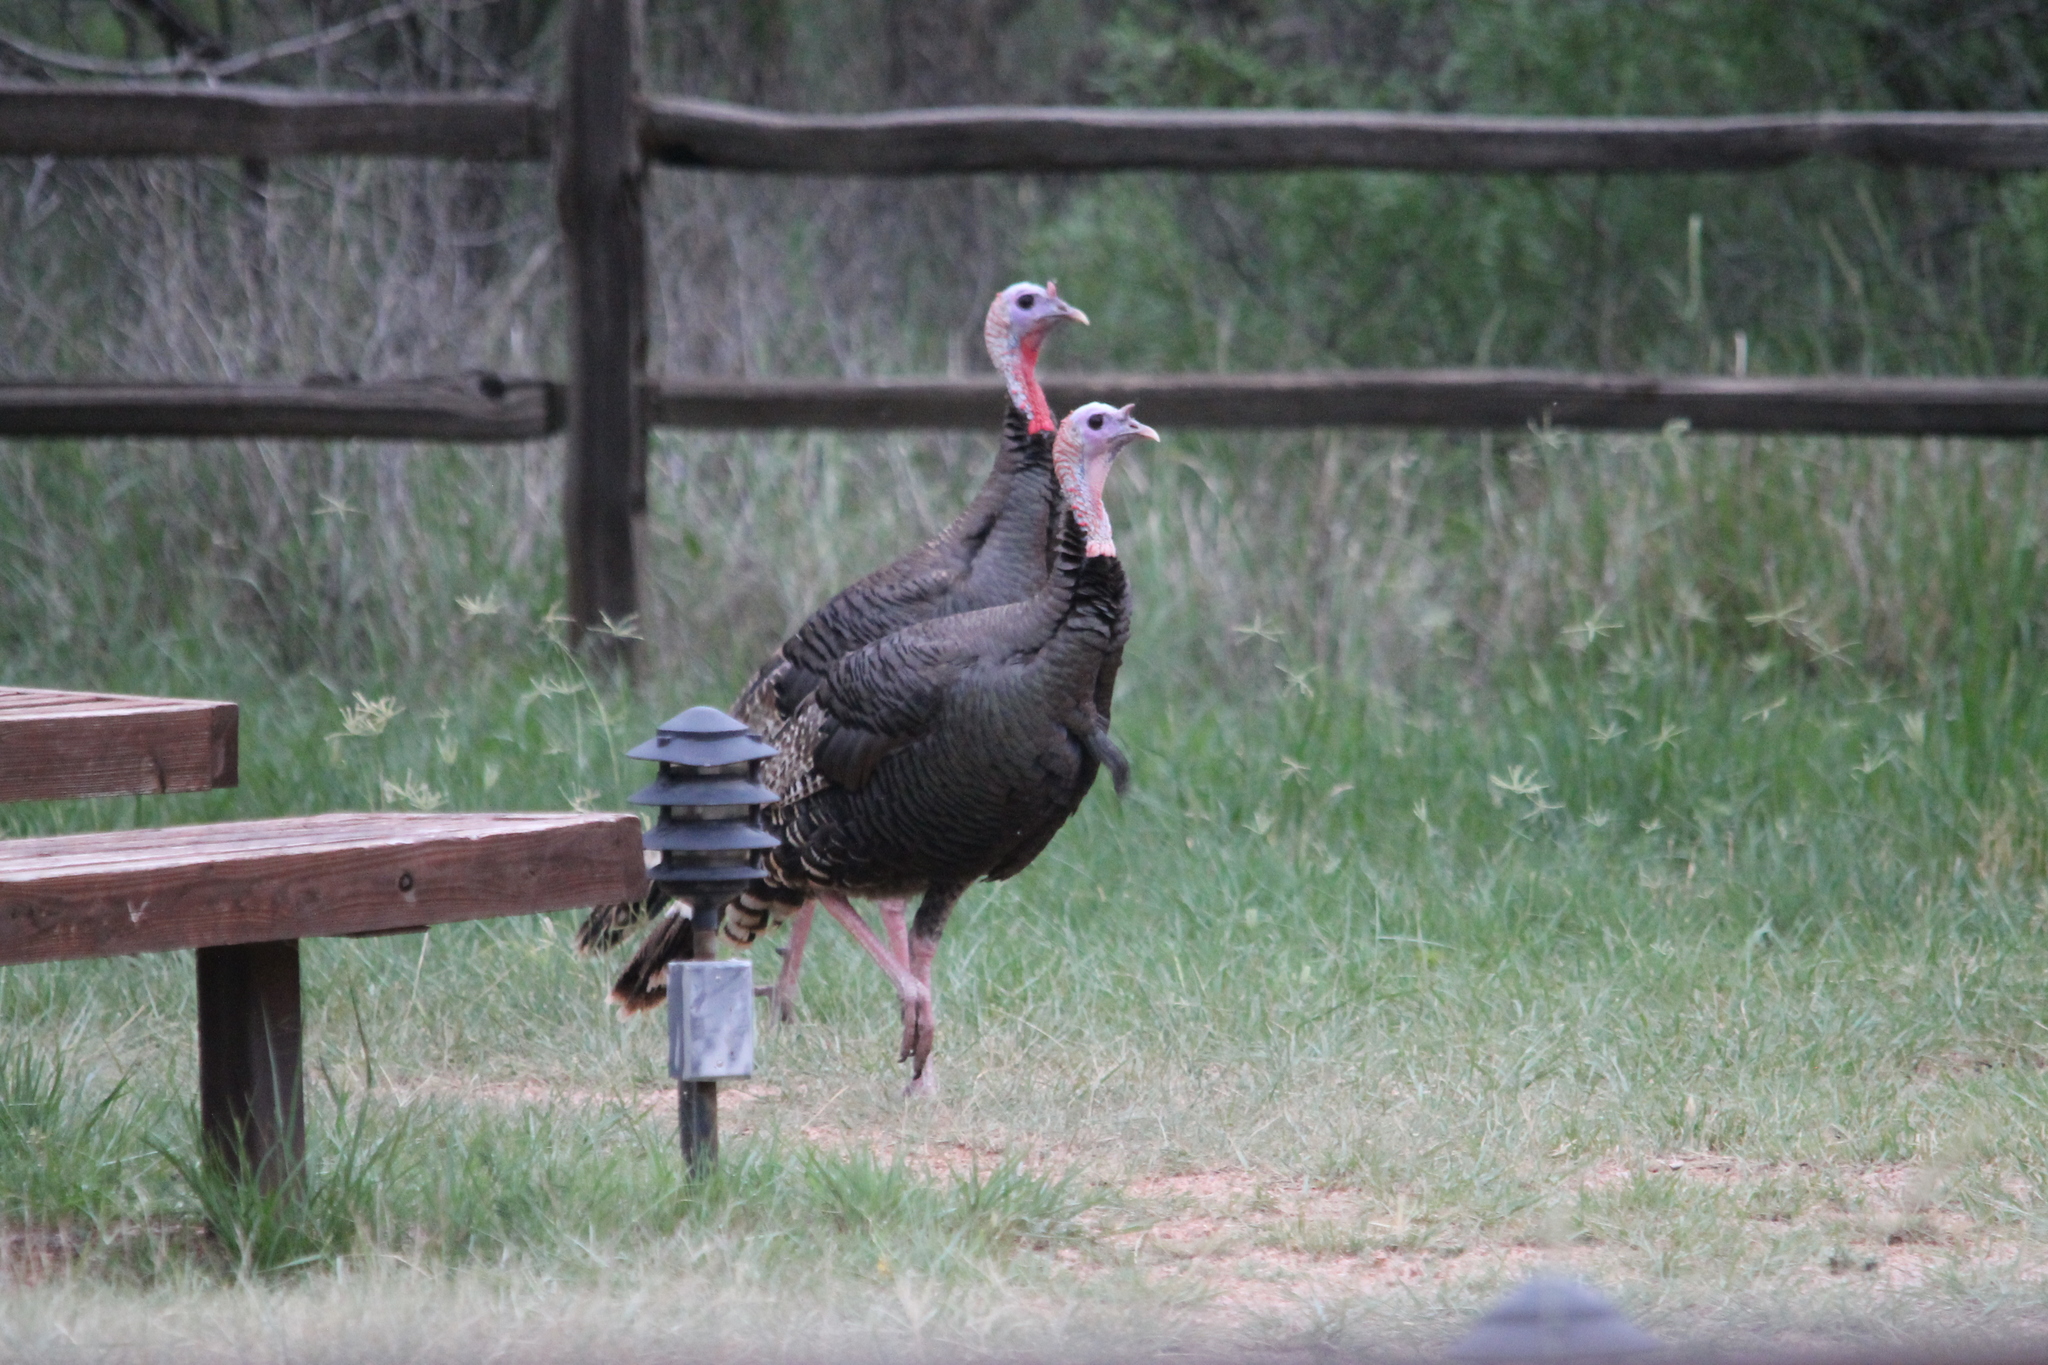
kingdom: Animalia
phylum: Chordata
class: Aves
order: Galliformes
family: Phasianidae
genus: Meleagris
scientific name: Meleagris gallopavo
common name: Wild turkey
